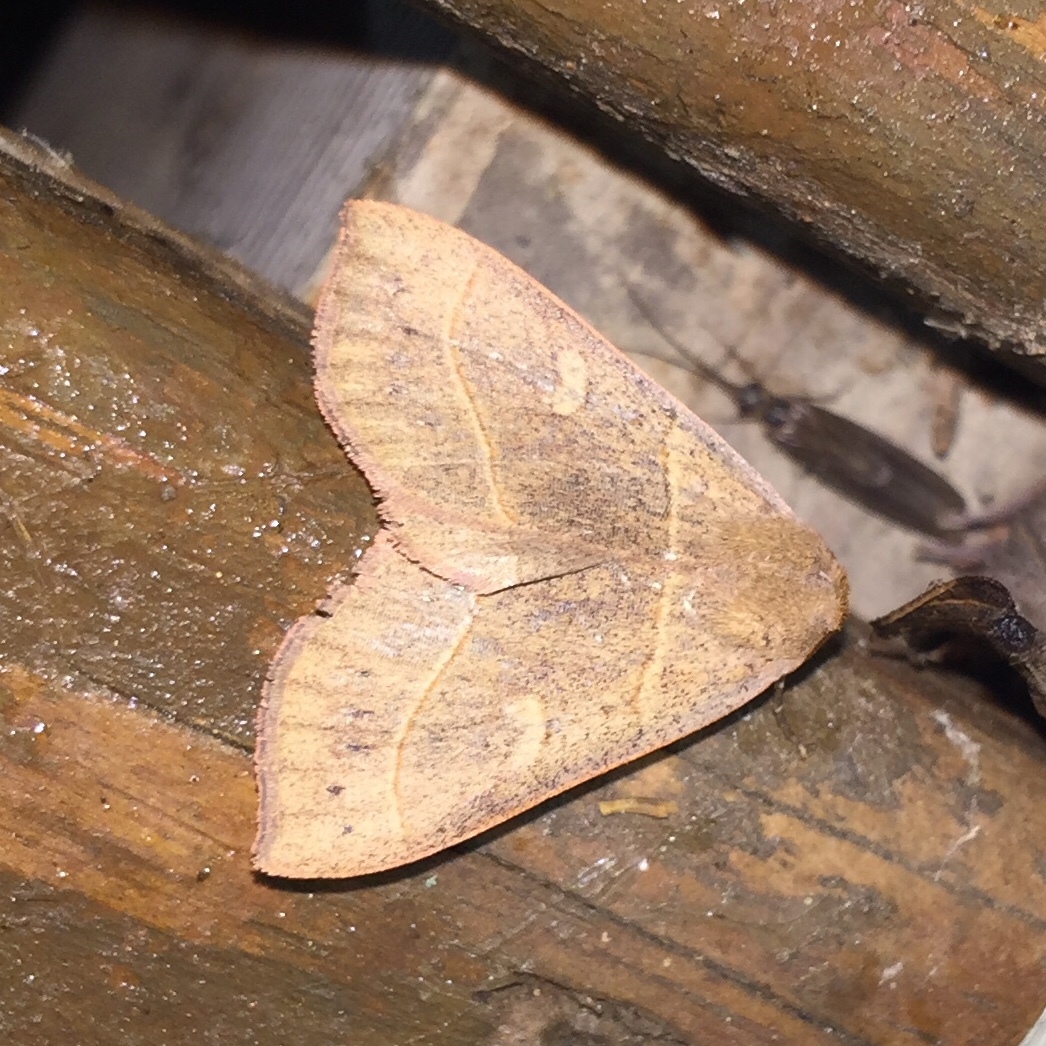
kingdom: Animalia
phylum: Arthropoda
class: Insecta
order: Lepidoptera
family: Erebidae
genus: Panopoda
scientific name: Panopoda rufimargo
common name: Red-lined panopoda moth
